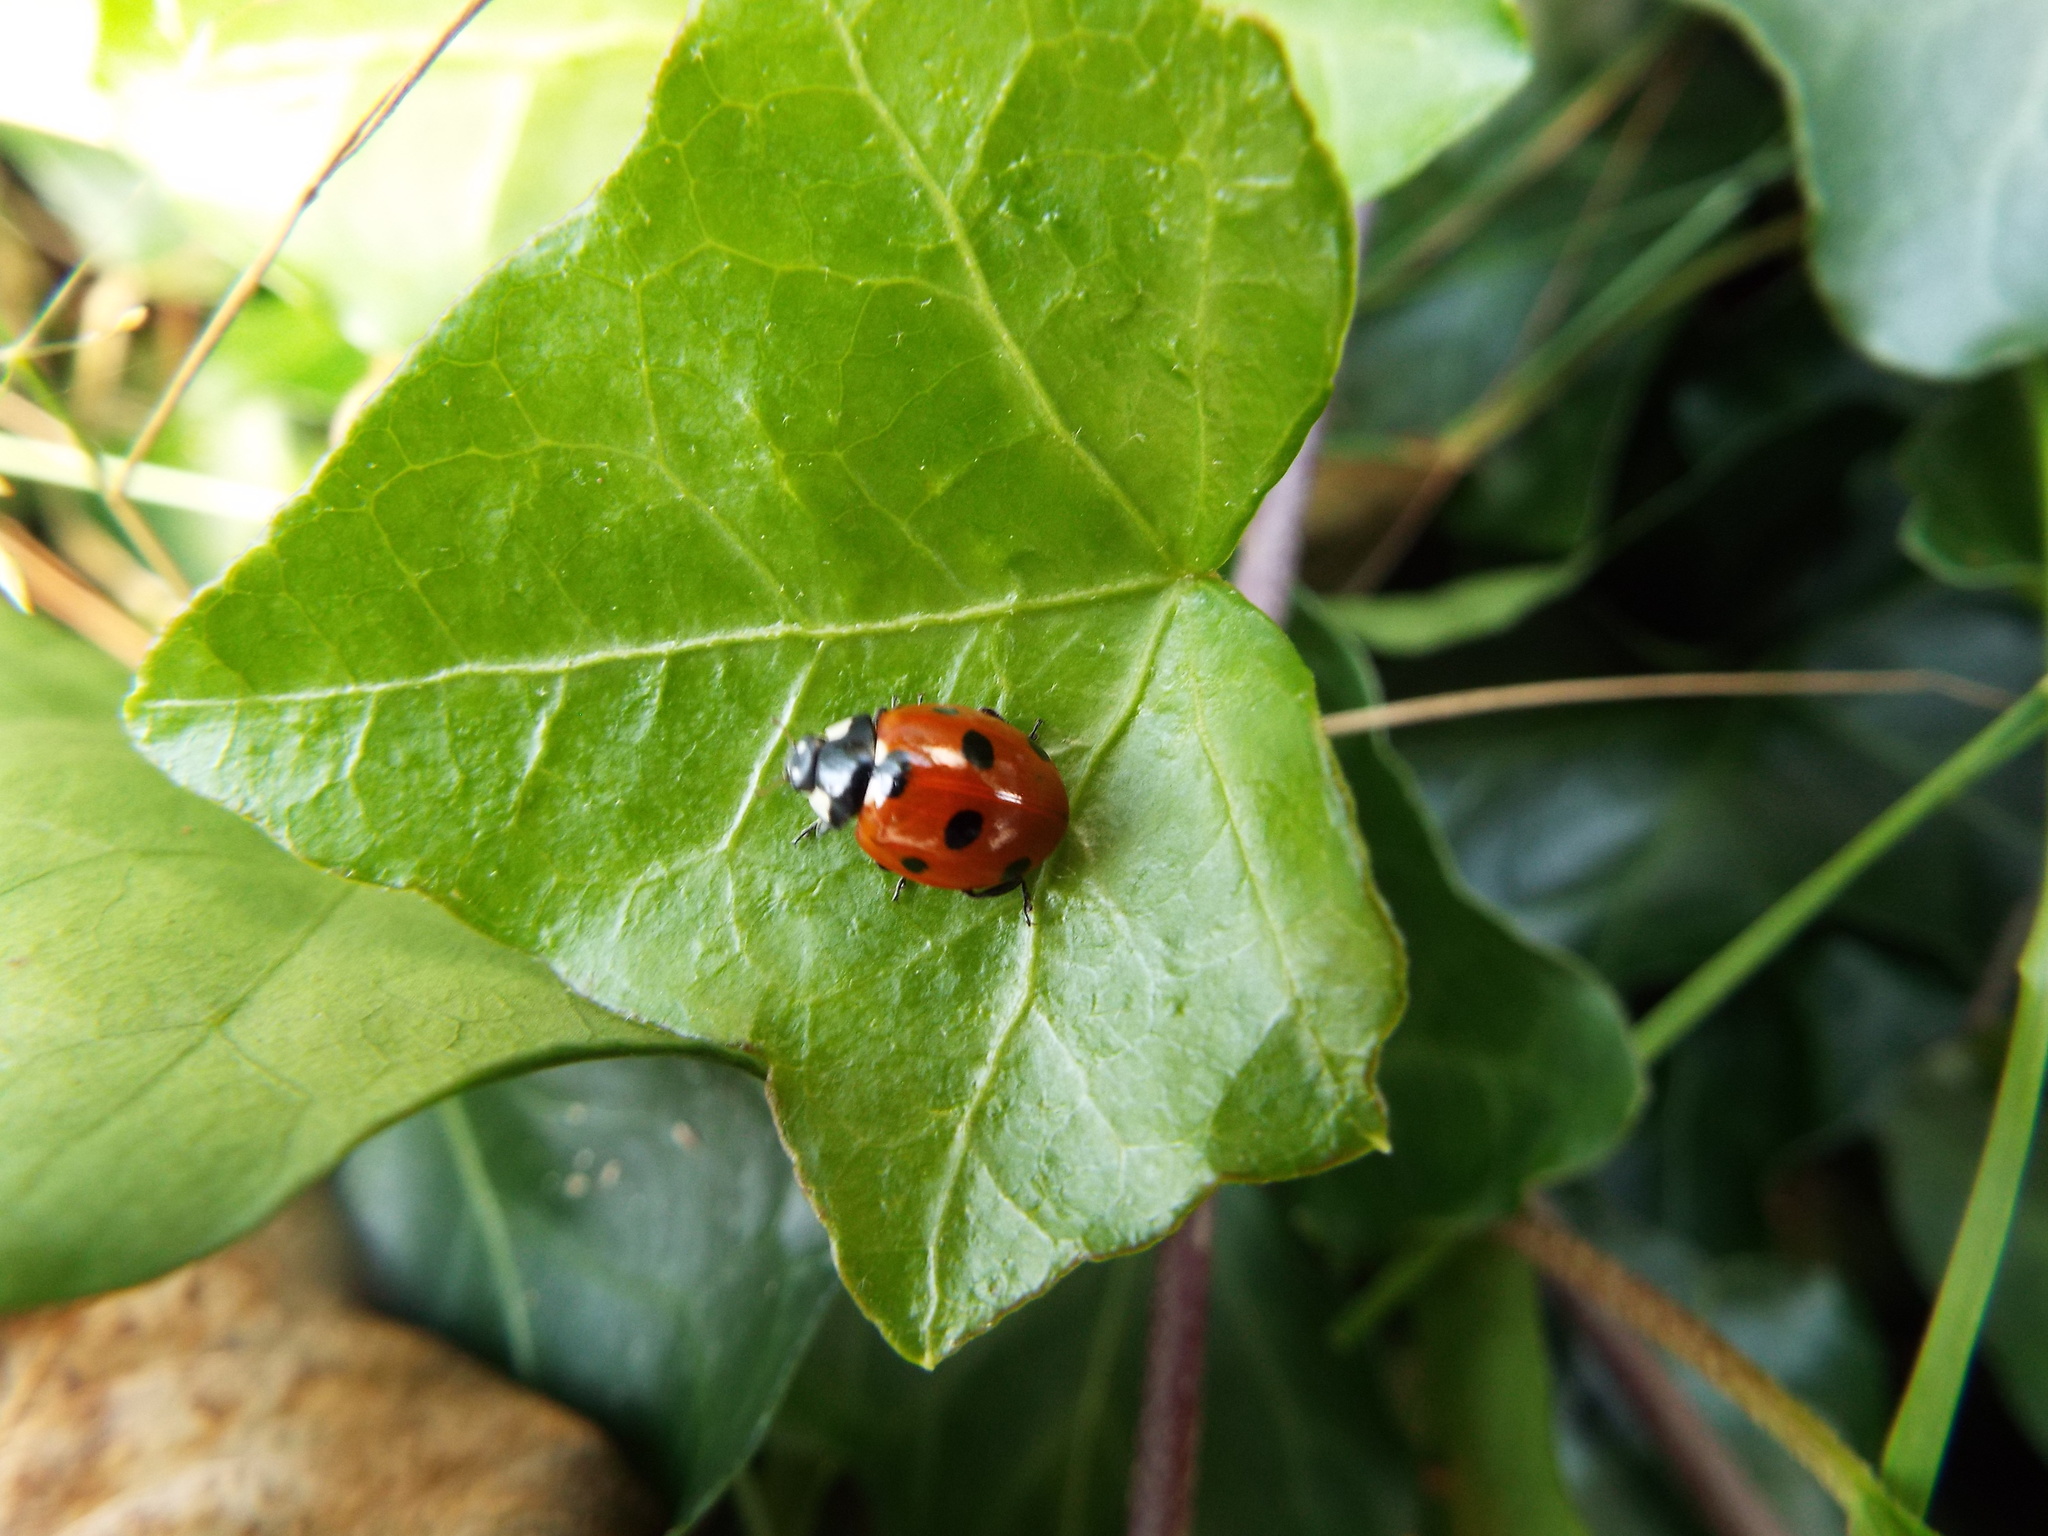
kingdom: Animalia
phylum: Arthropoda
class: Insecta
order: Coleoptera
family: Coccinellidae
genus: Coccinella
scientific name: Coccinella septempunctata
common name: Sevenspotted lady beetle
